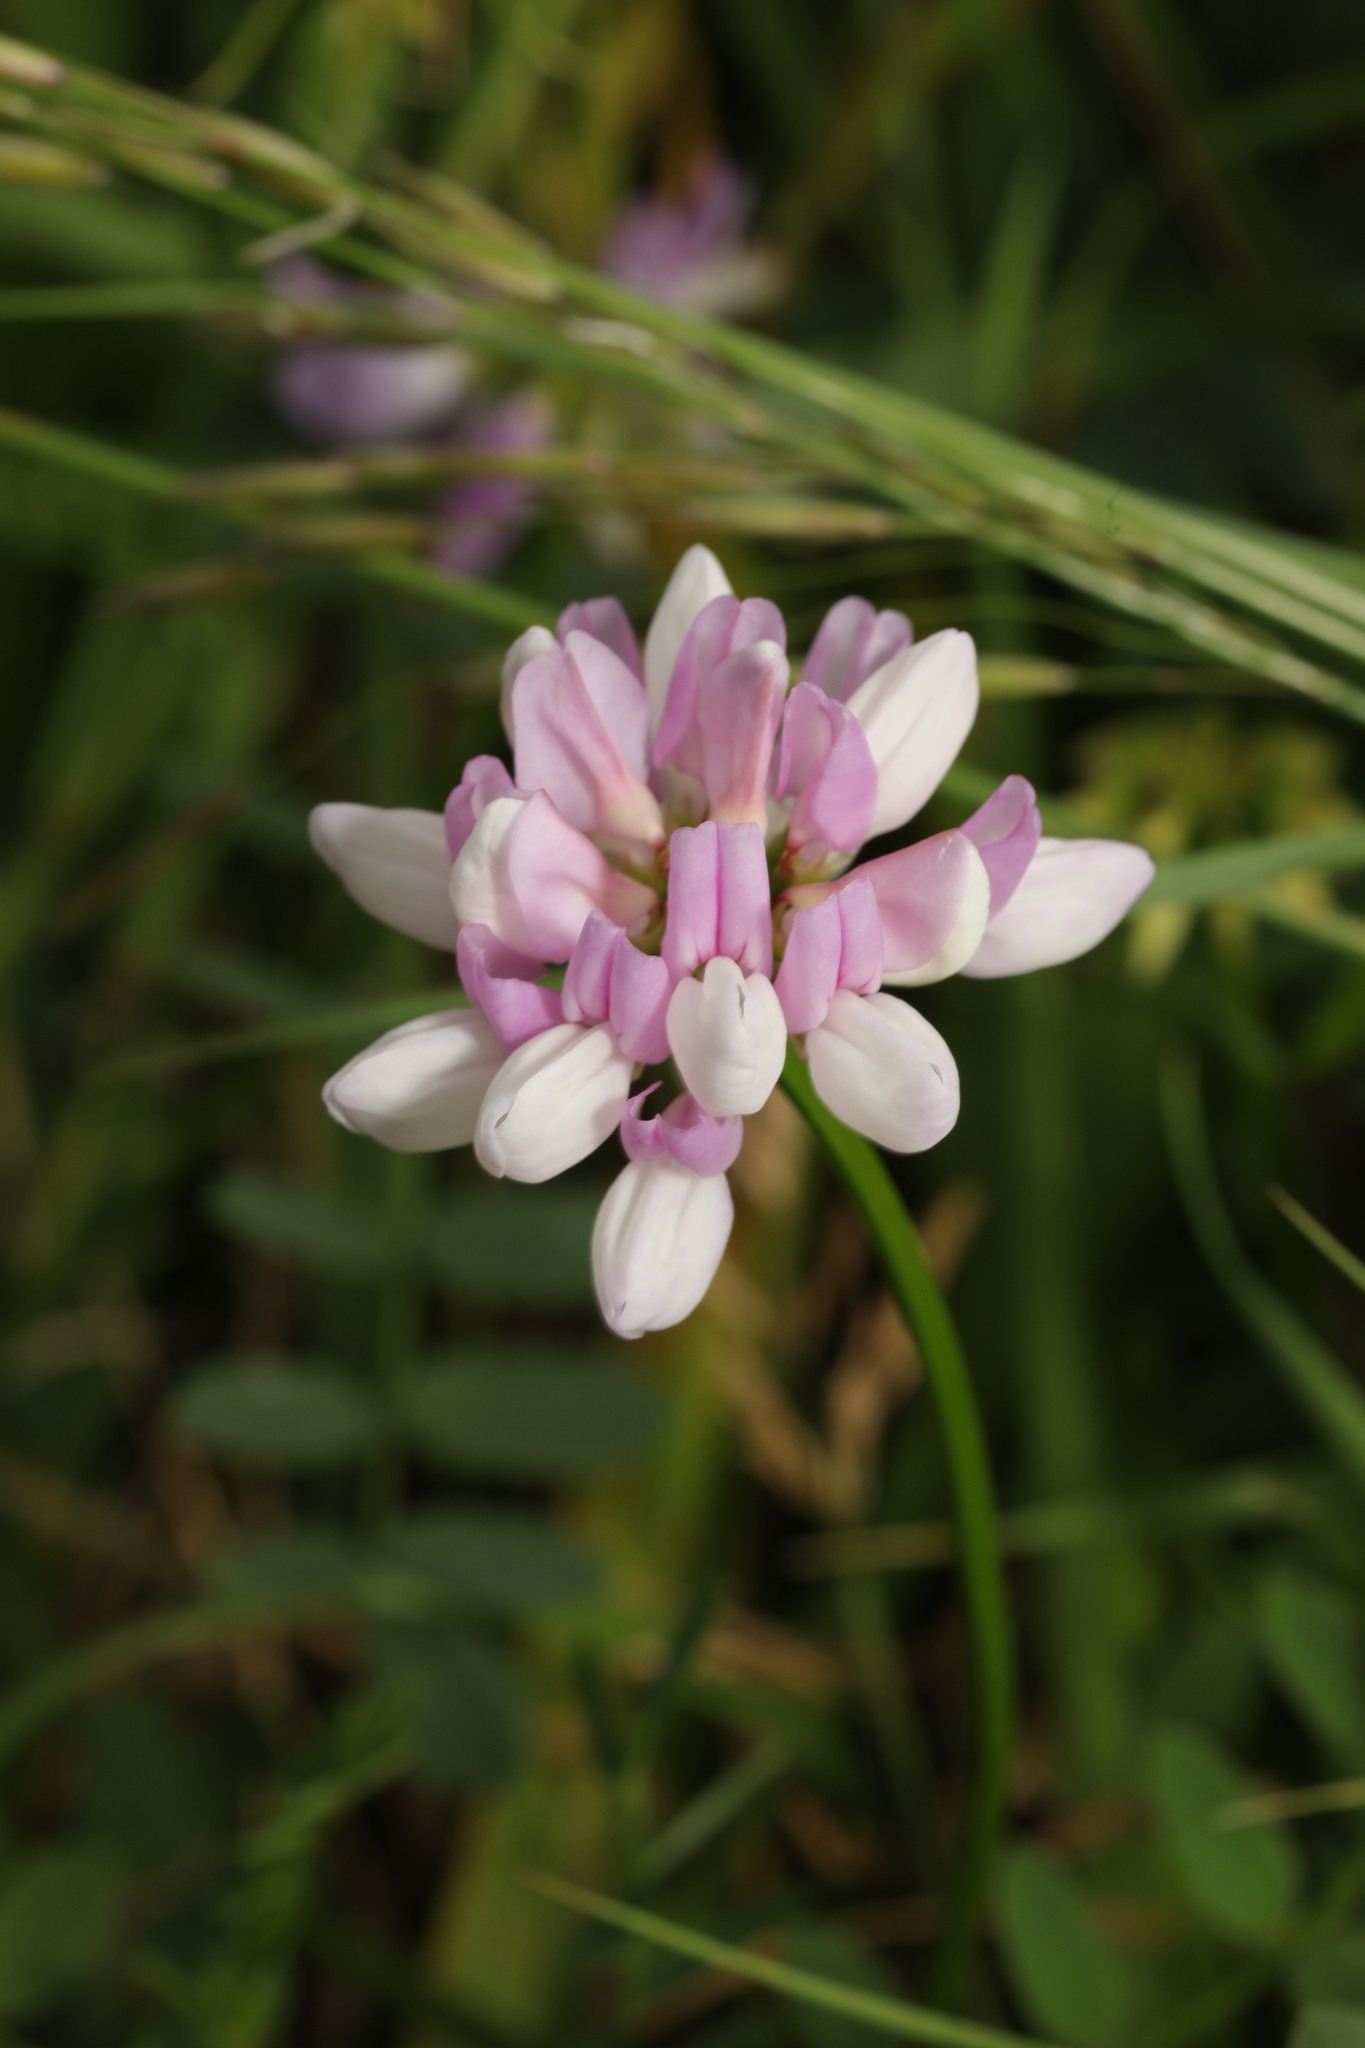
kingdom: Plantae
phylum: Tracheophyta
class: Magnoliopsida
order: Fabales
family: Fabaceae
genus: Coronilla
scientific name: Coronilla varia
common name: Crownvetch
